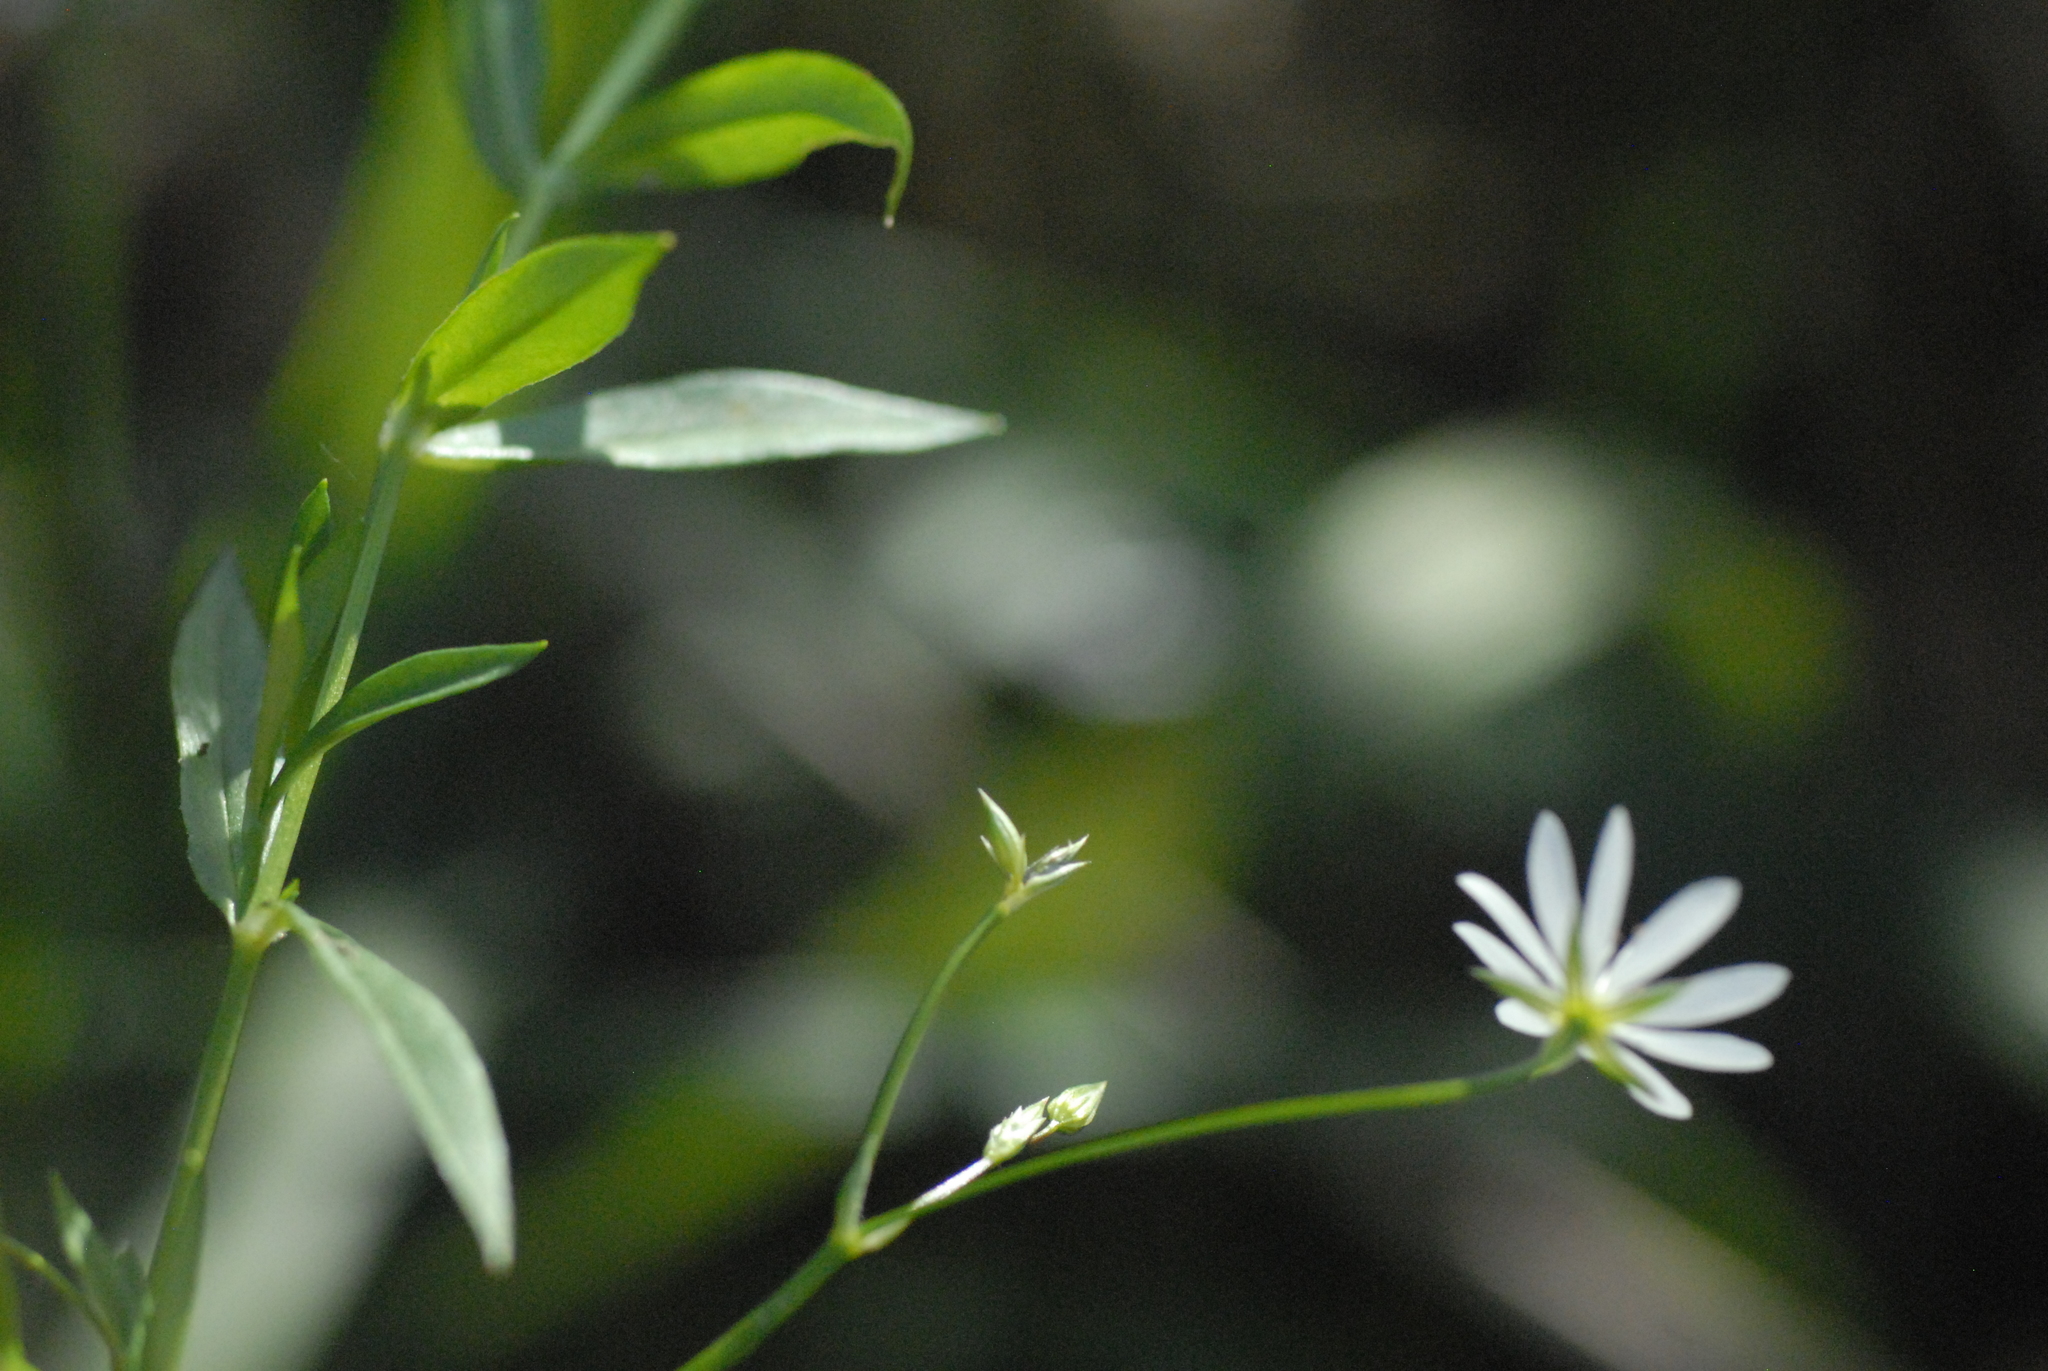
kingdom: Plantae
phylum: Tracheophyta
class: Magnoliopsida
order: Caryophyllales
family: Caryophyllaceae
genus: Stellaria
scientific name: Stellaria graminea
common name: Grass-like starwort
